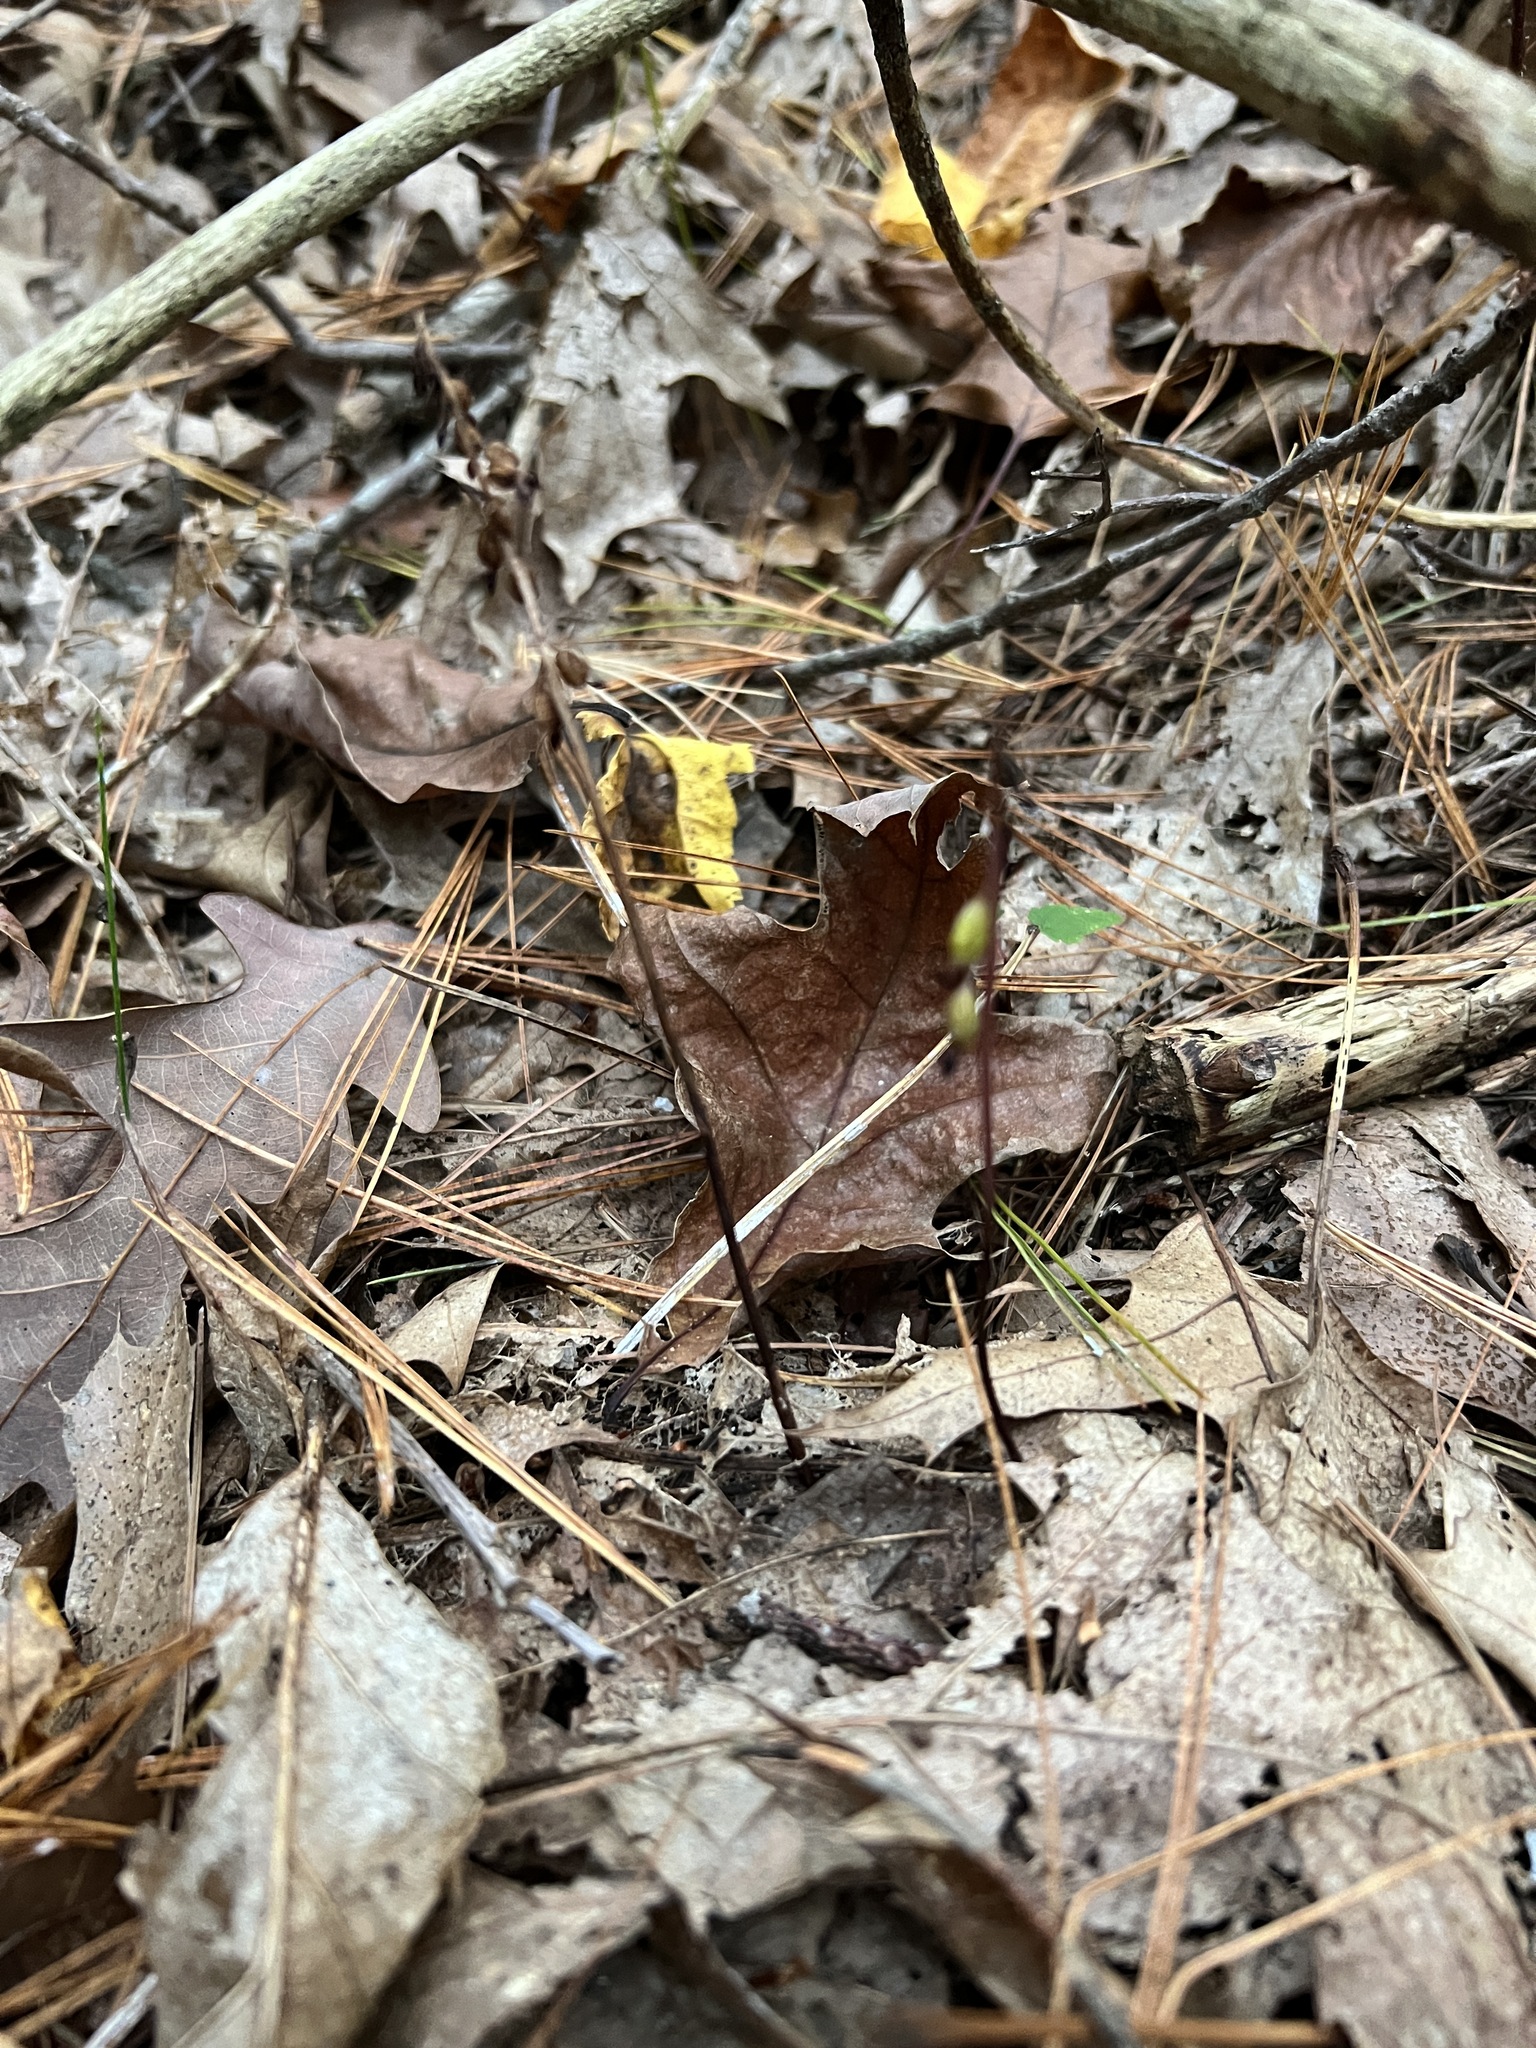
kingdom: Plantae
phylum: Tracheophyta
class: Liliopsida
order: Asparagales
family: Orchidaceae
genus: Corallorhiza
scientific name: Corallorhiza odontorhiza
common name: Autumn coralroot
